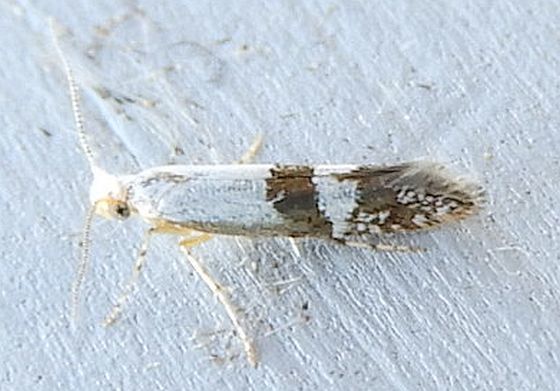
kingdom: Animalia
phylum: Arthropoda
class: Insecta
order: Lepidoptera
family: Argyresthiidae
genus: Argyresthia
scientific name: Argyresthia inscriptella
